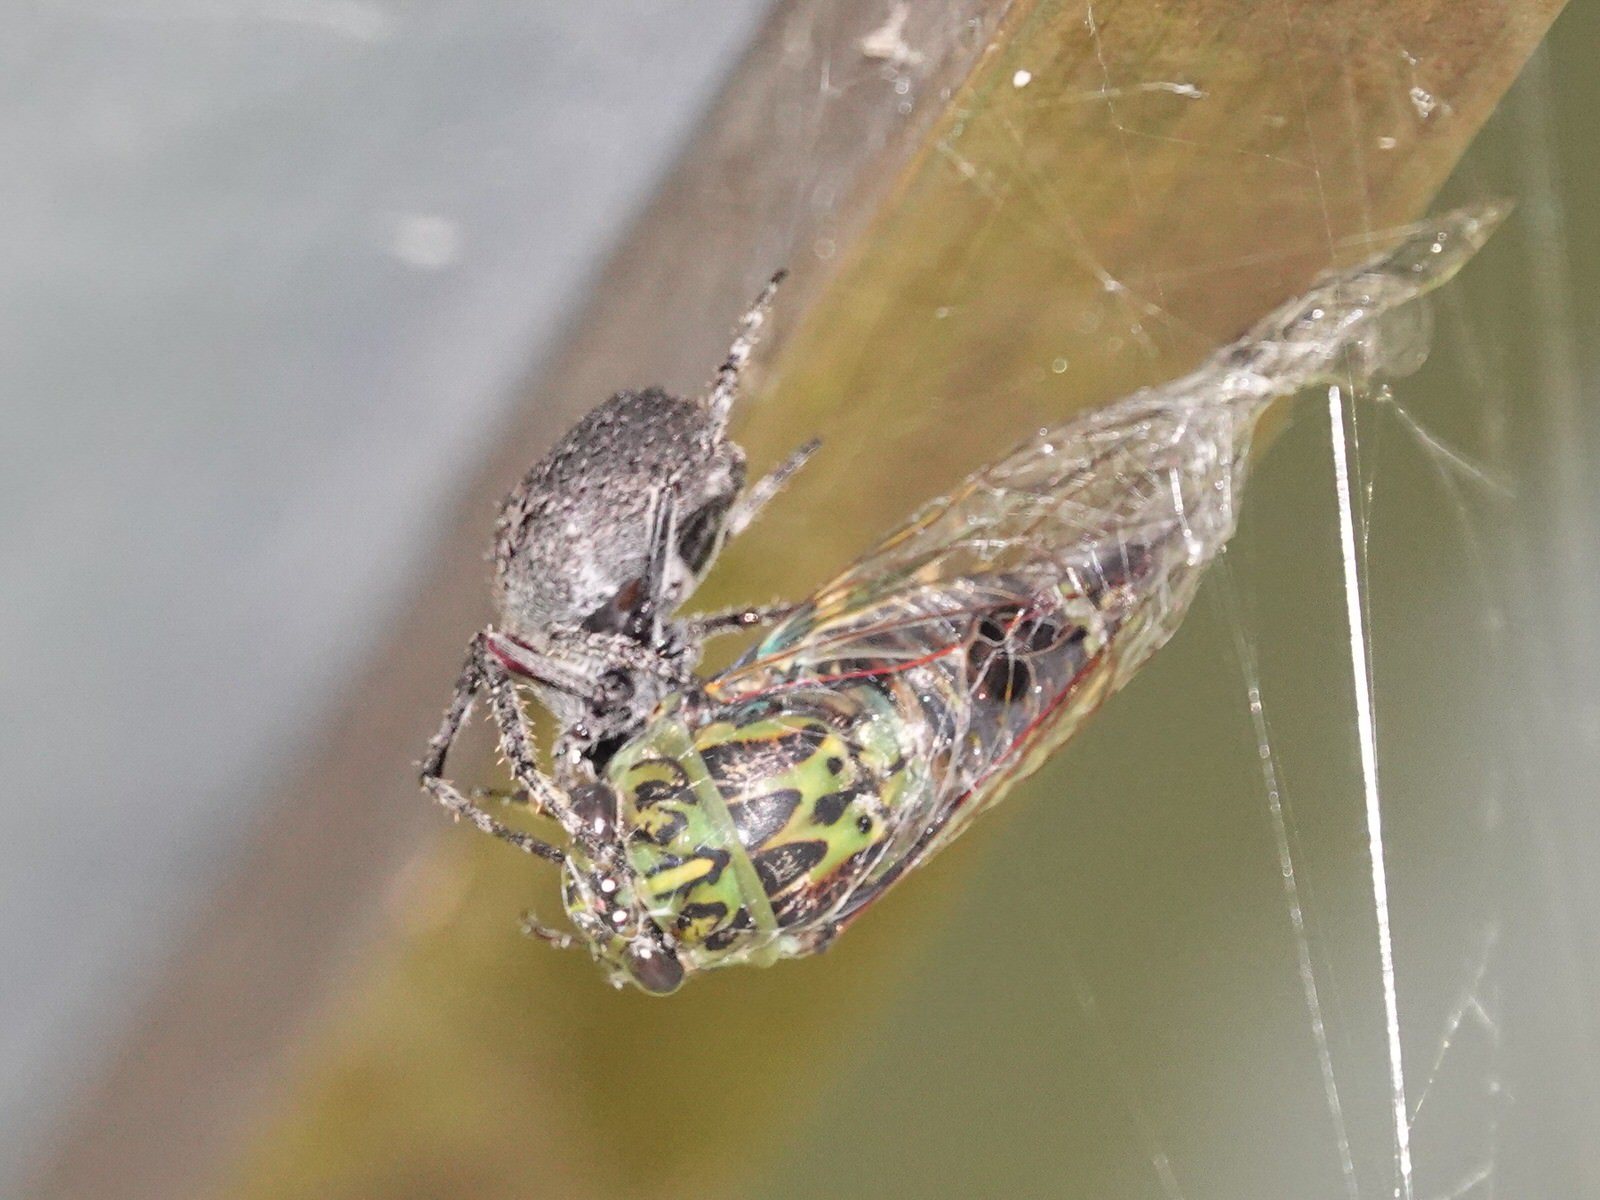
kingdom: Animalia
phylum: Arthropoda
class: Insecta
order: Hemiptera
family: Cicadidae
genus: Amphipsalta
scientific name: Amphipsalta zelandica
